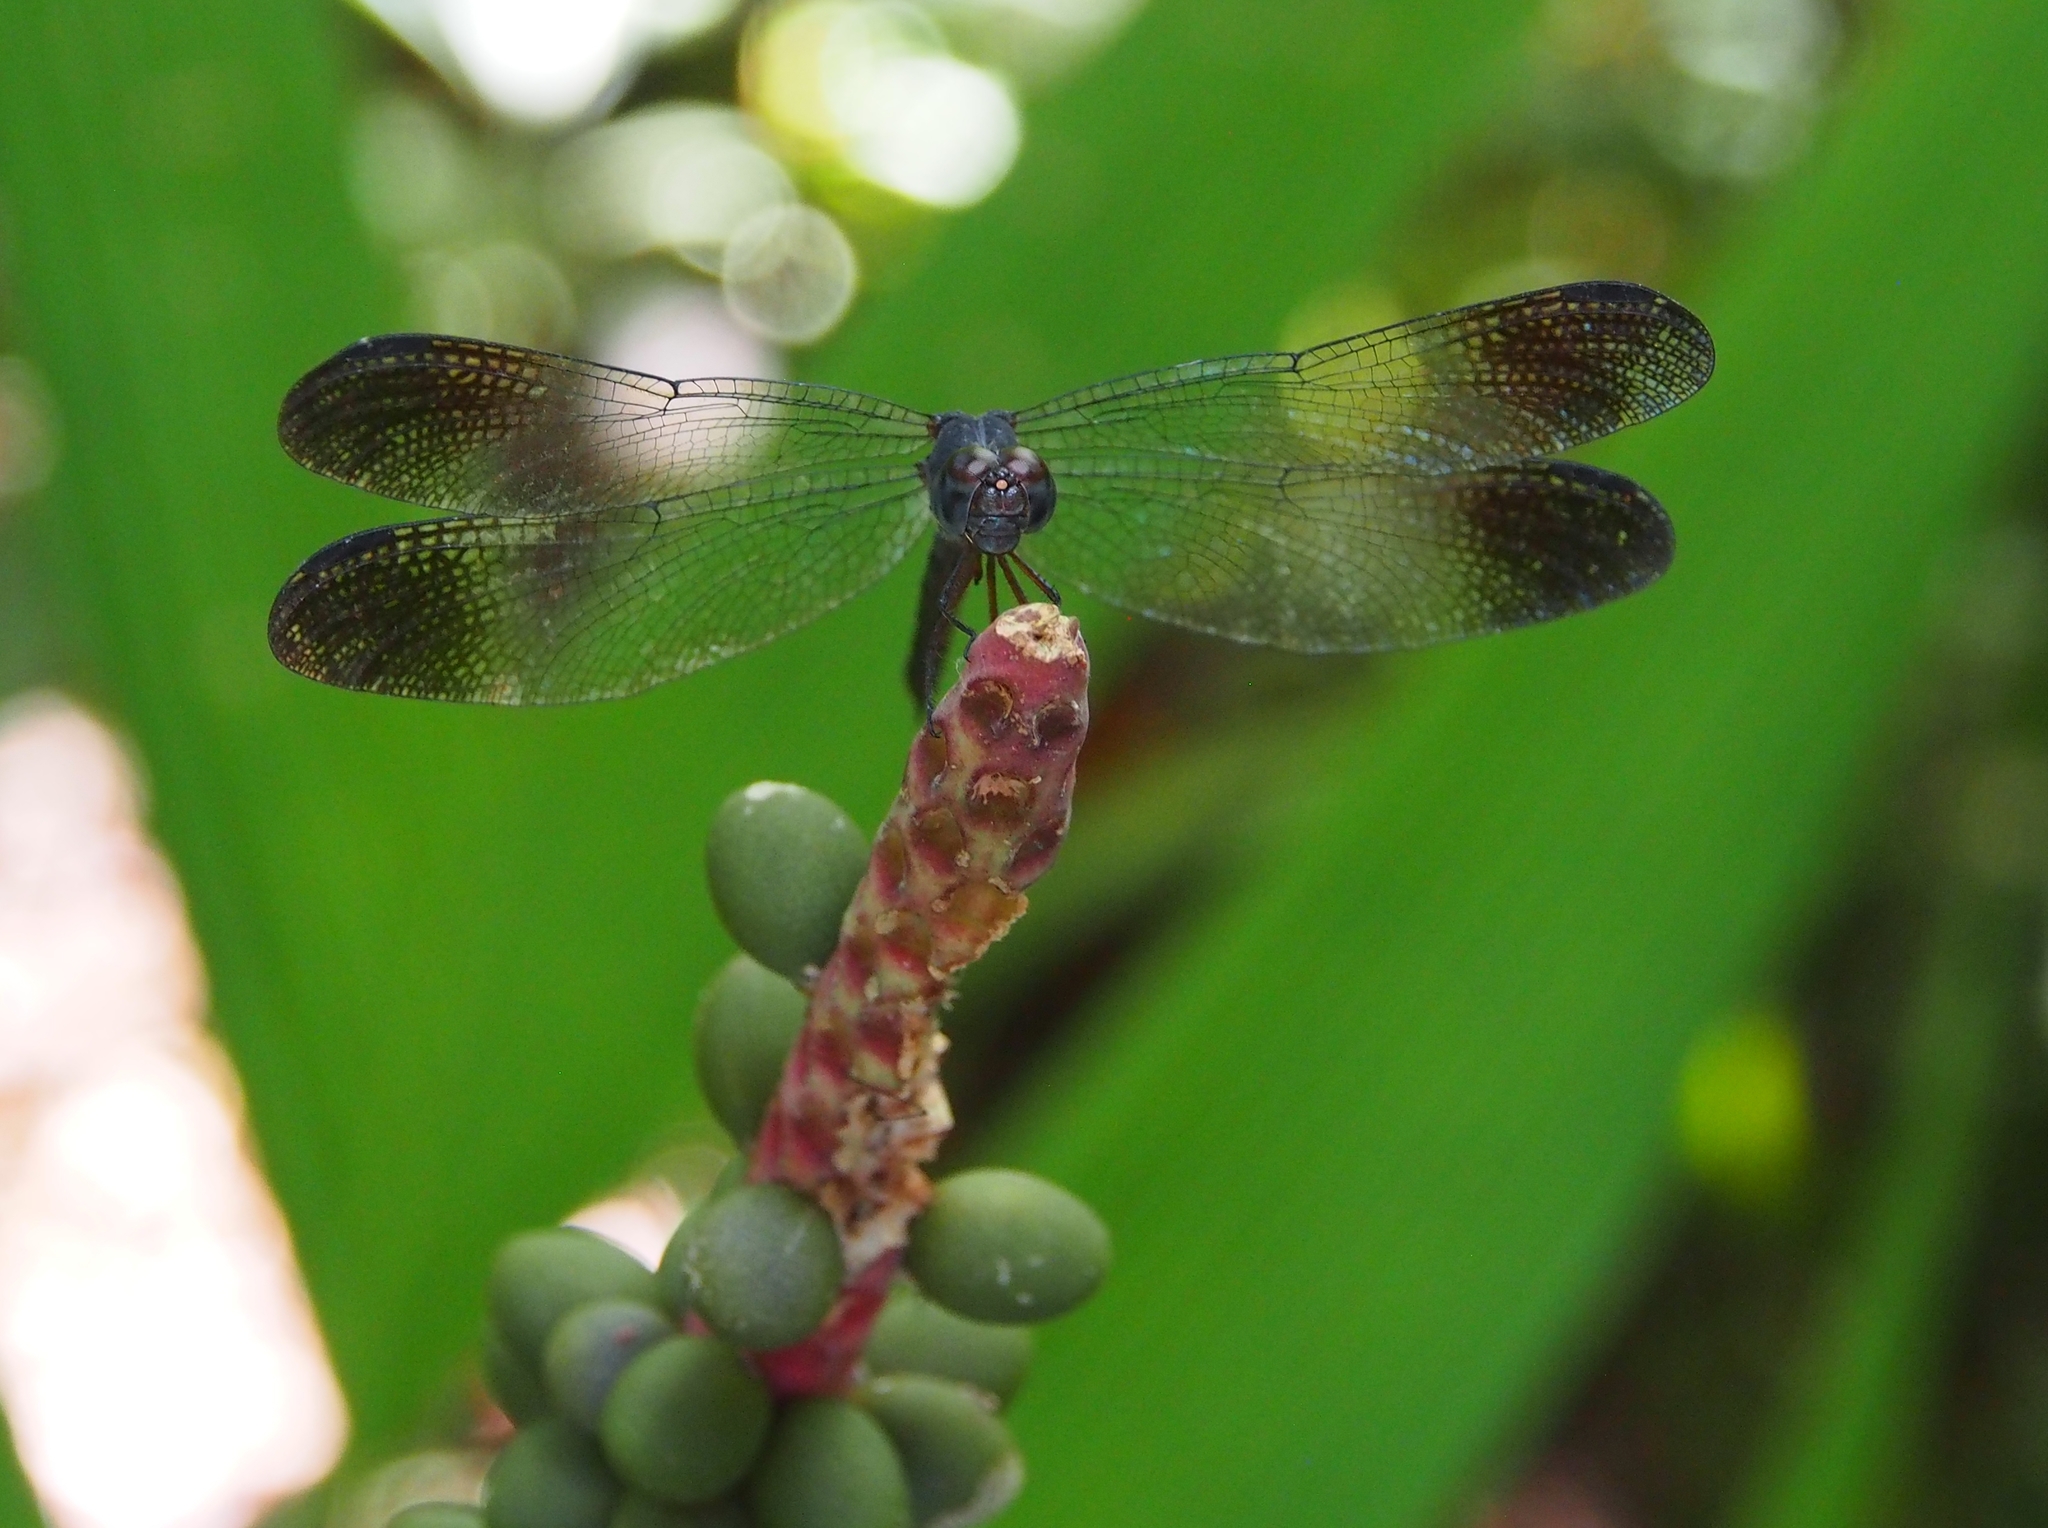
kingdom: Animalia
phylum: Arthropoda
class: Insecta
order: Odonata
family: Libellulidae
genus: Uracis
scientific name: Uracis fastigiata
